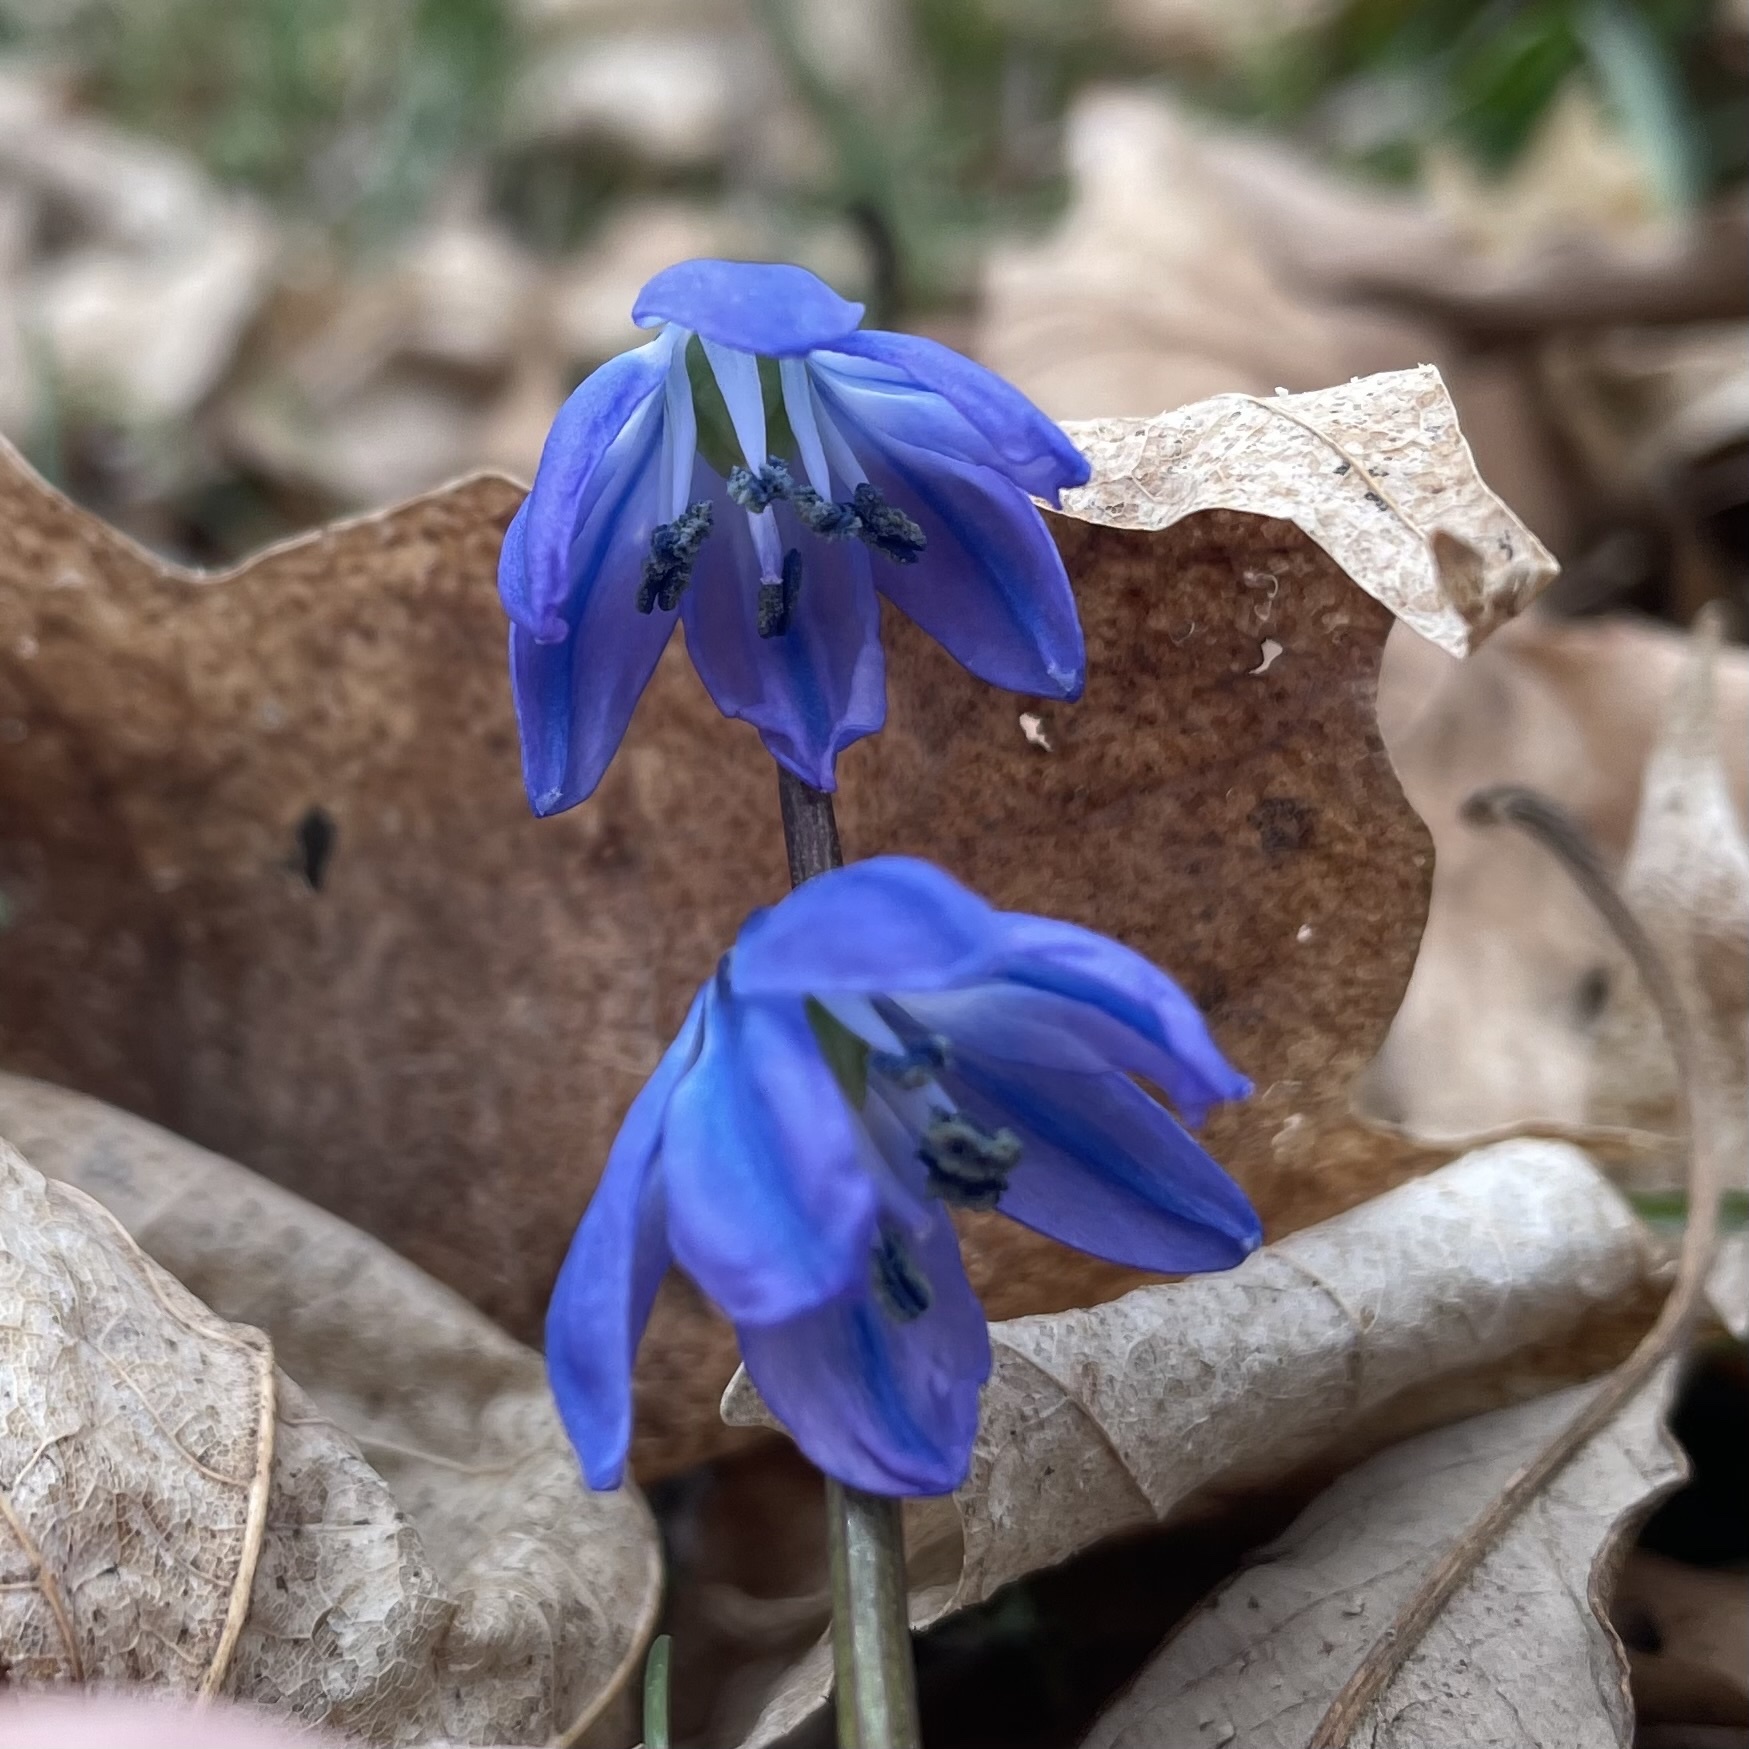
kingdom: Plantae
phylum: Tracheophyta
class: Liliopsida
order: Asparagales
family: Asparagaceae
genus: Scilla
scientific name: Scilla siberica
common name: Siberian squill
